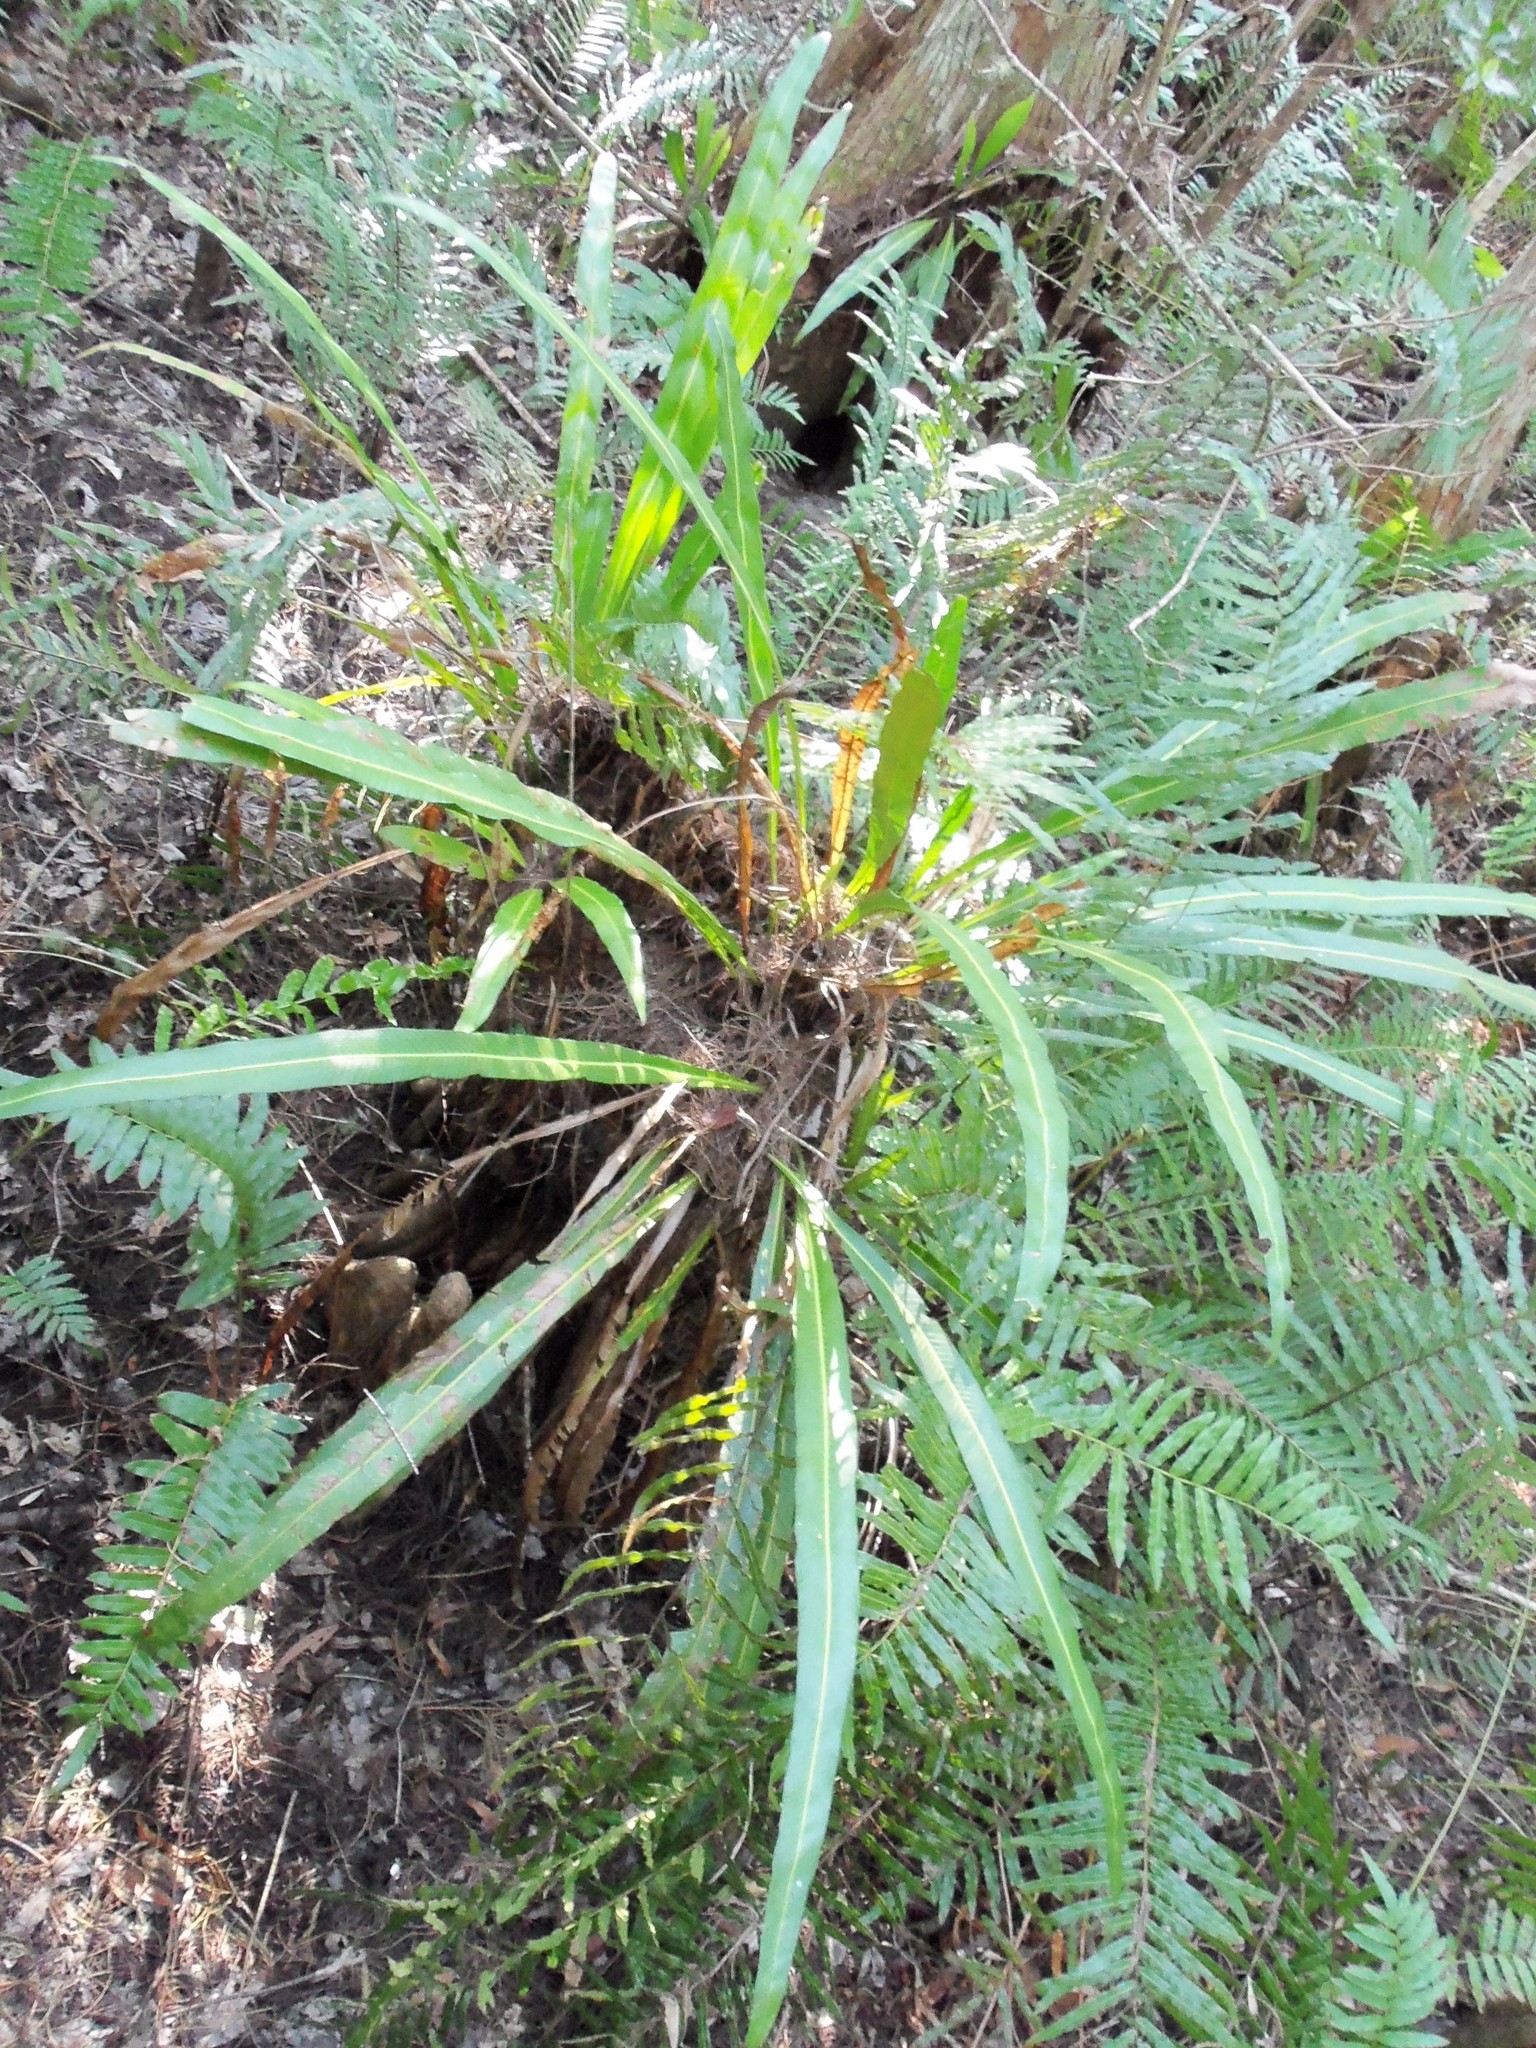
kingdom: Plantae
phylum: Tracheophyta
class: Polypodiopsida
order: Polypodiales
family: Polypodiaceae
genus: Campyloneurum
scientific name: Campyloneurum phyllitidis
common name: Cow-tongue fern
